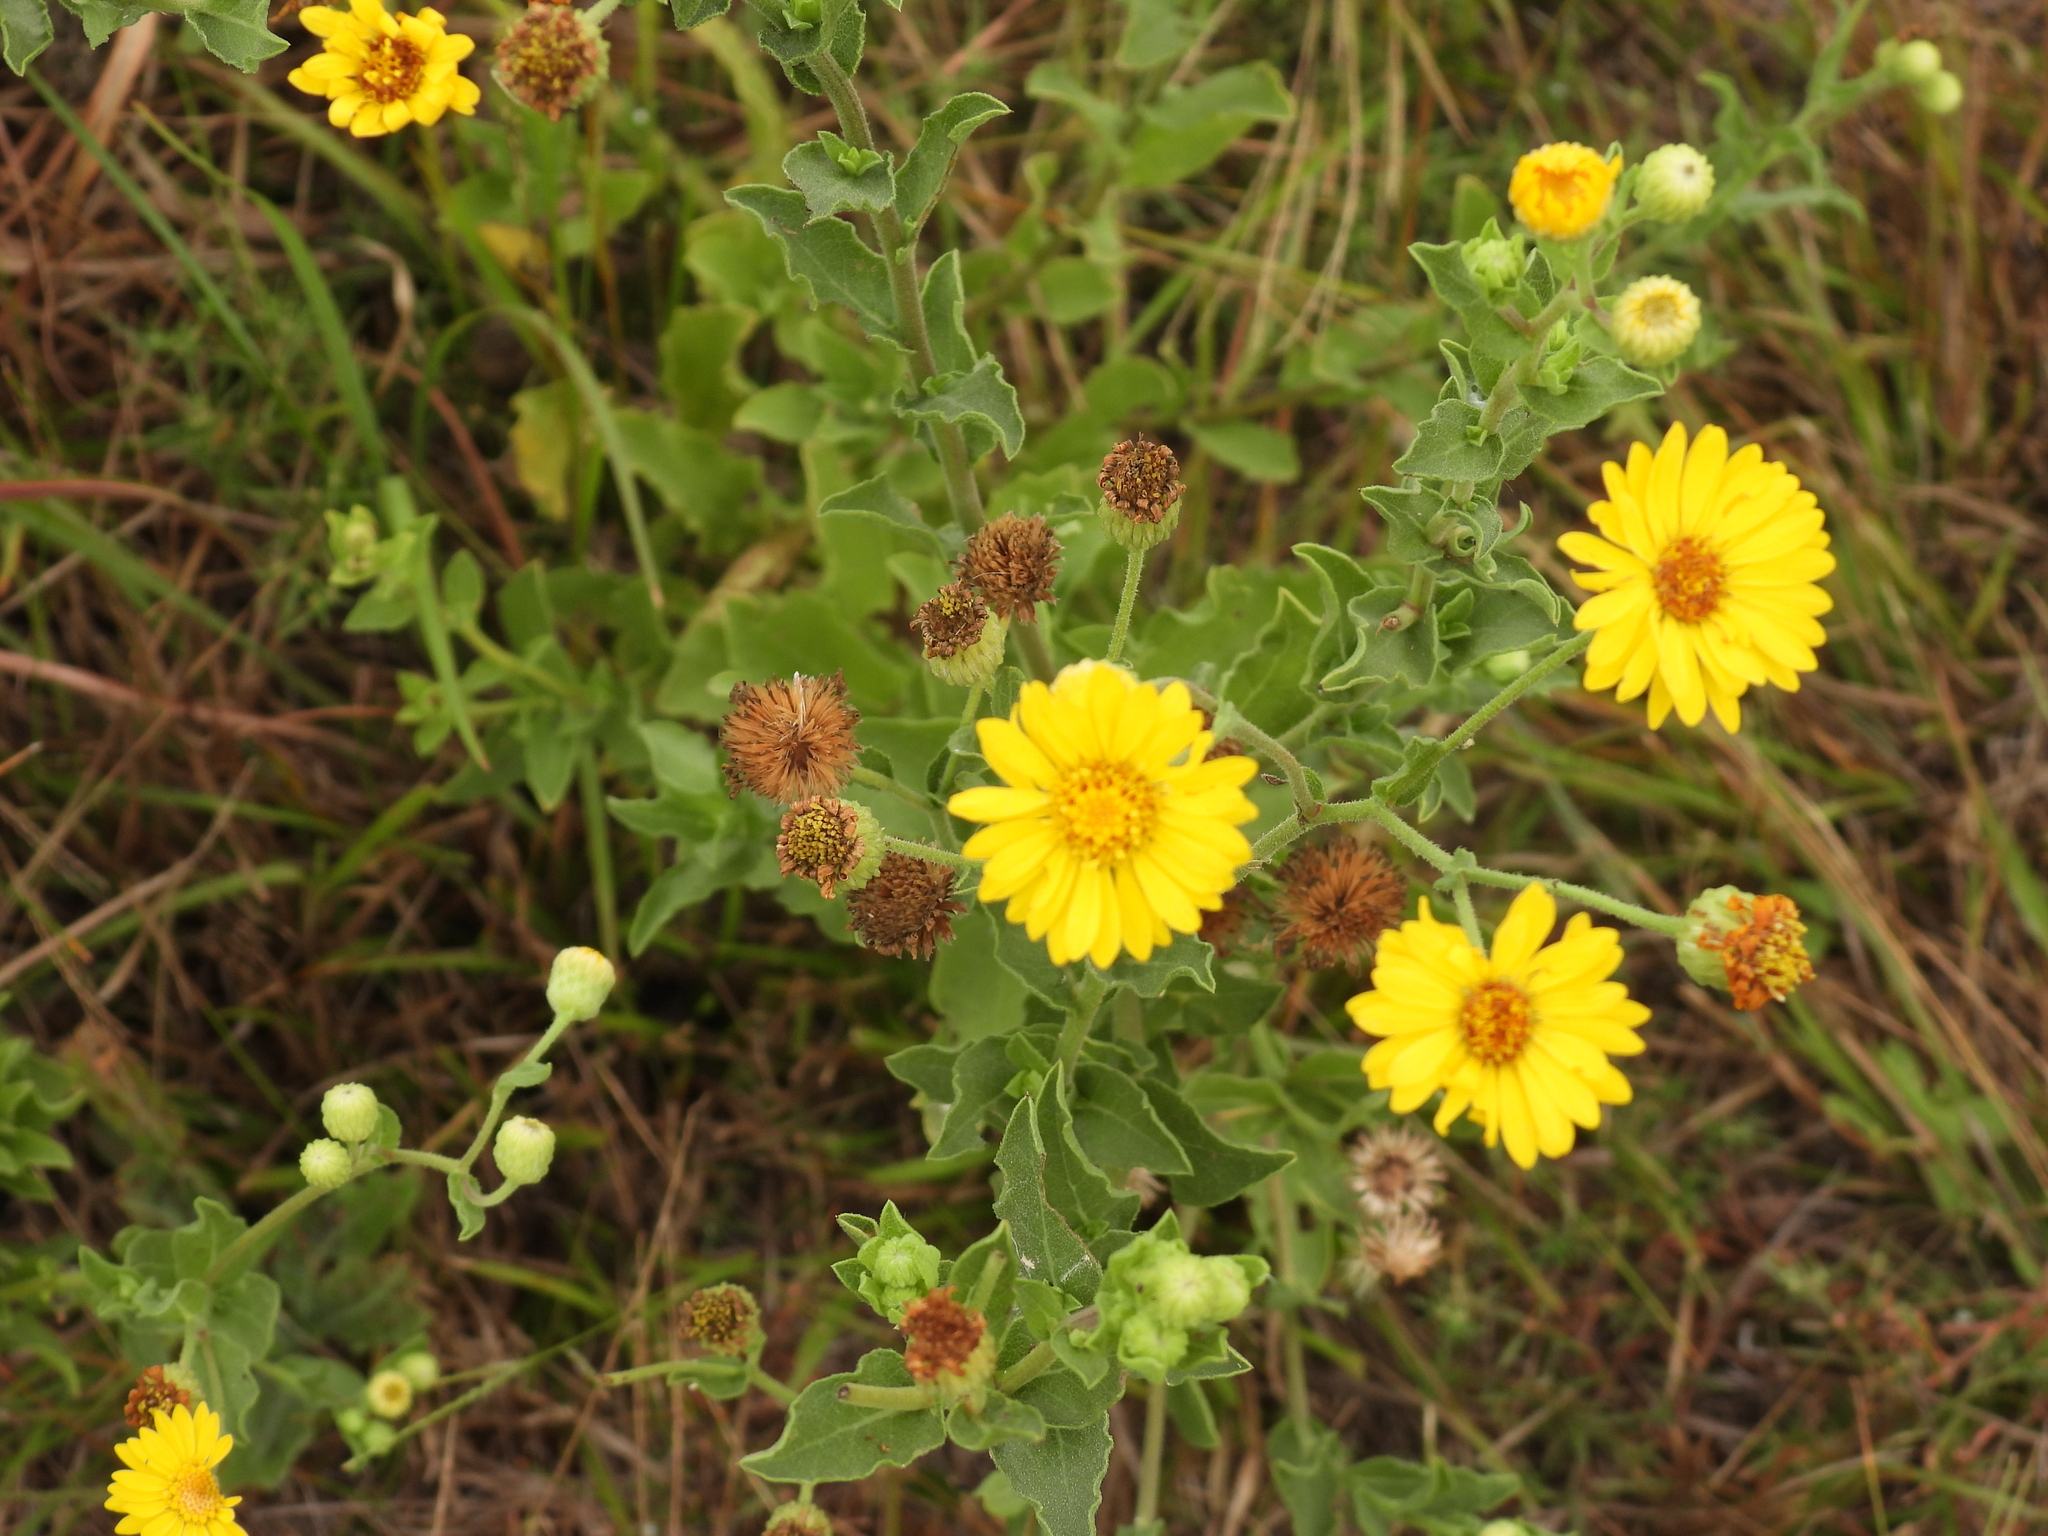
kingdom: Plantae
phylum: Tracheophyta
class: Magnoliopsida
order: Asterales
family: Asteraceae
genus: Heterotheca
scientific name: Heterotheca subaxillaris
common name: Camphorweed
